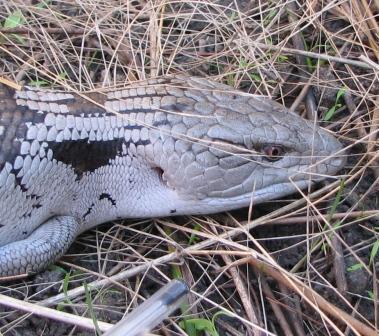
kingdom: Animalia
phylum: Chordata
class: Squamata
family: Scincidae
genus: Tiliqua
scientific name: Tiliqua scincoides
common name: Common bluetongue
